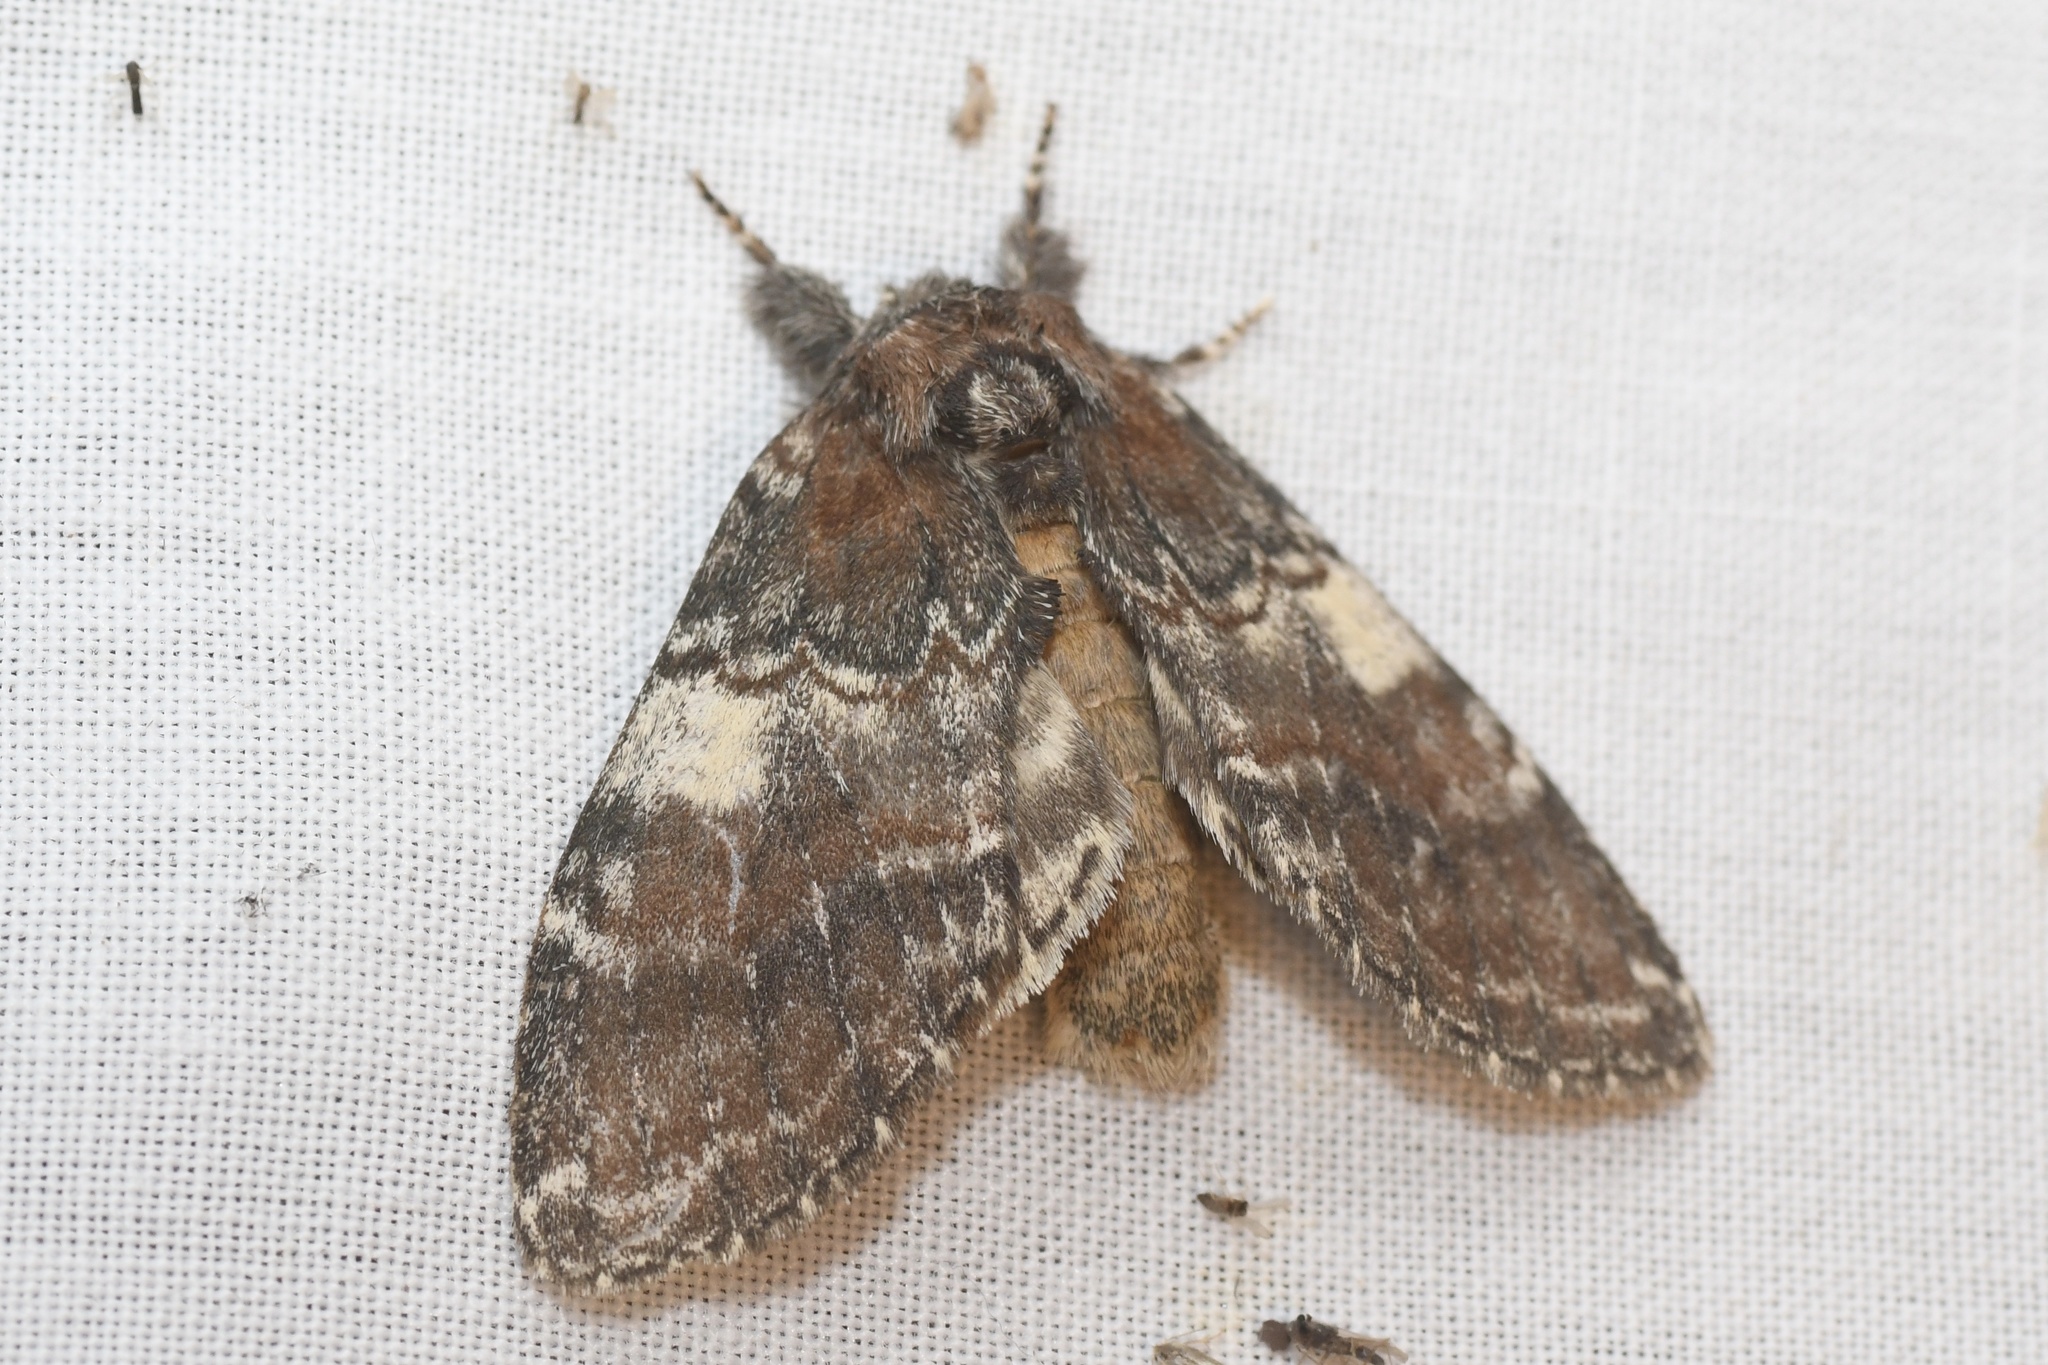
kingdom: Animalia
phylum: Arthropoda
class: Insecta
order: Lepidoptera
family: Notodontidae
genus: Peridea
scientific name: Peridea ferruginea
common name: Chocolate prominent
